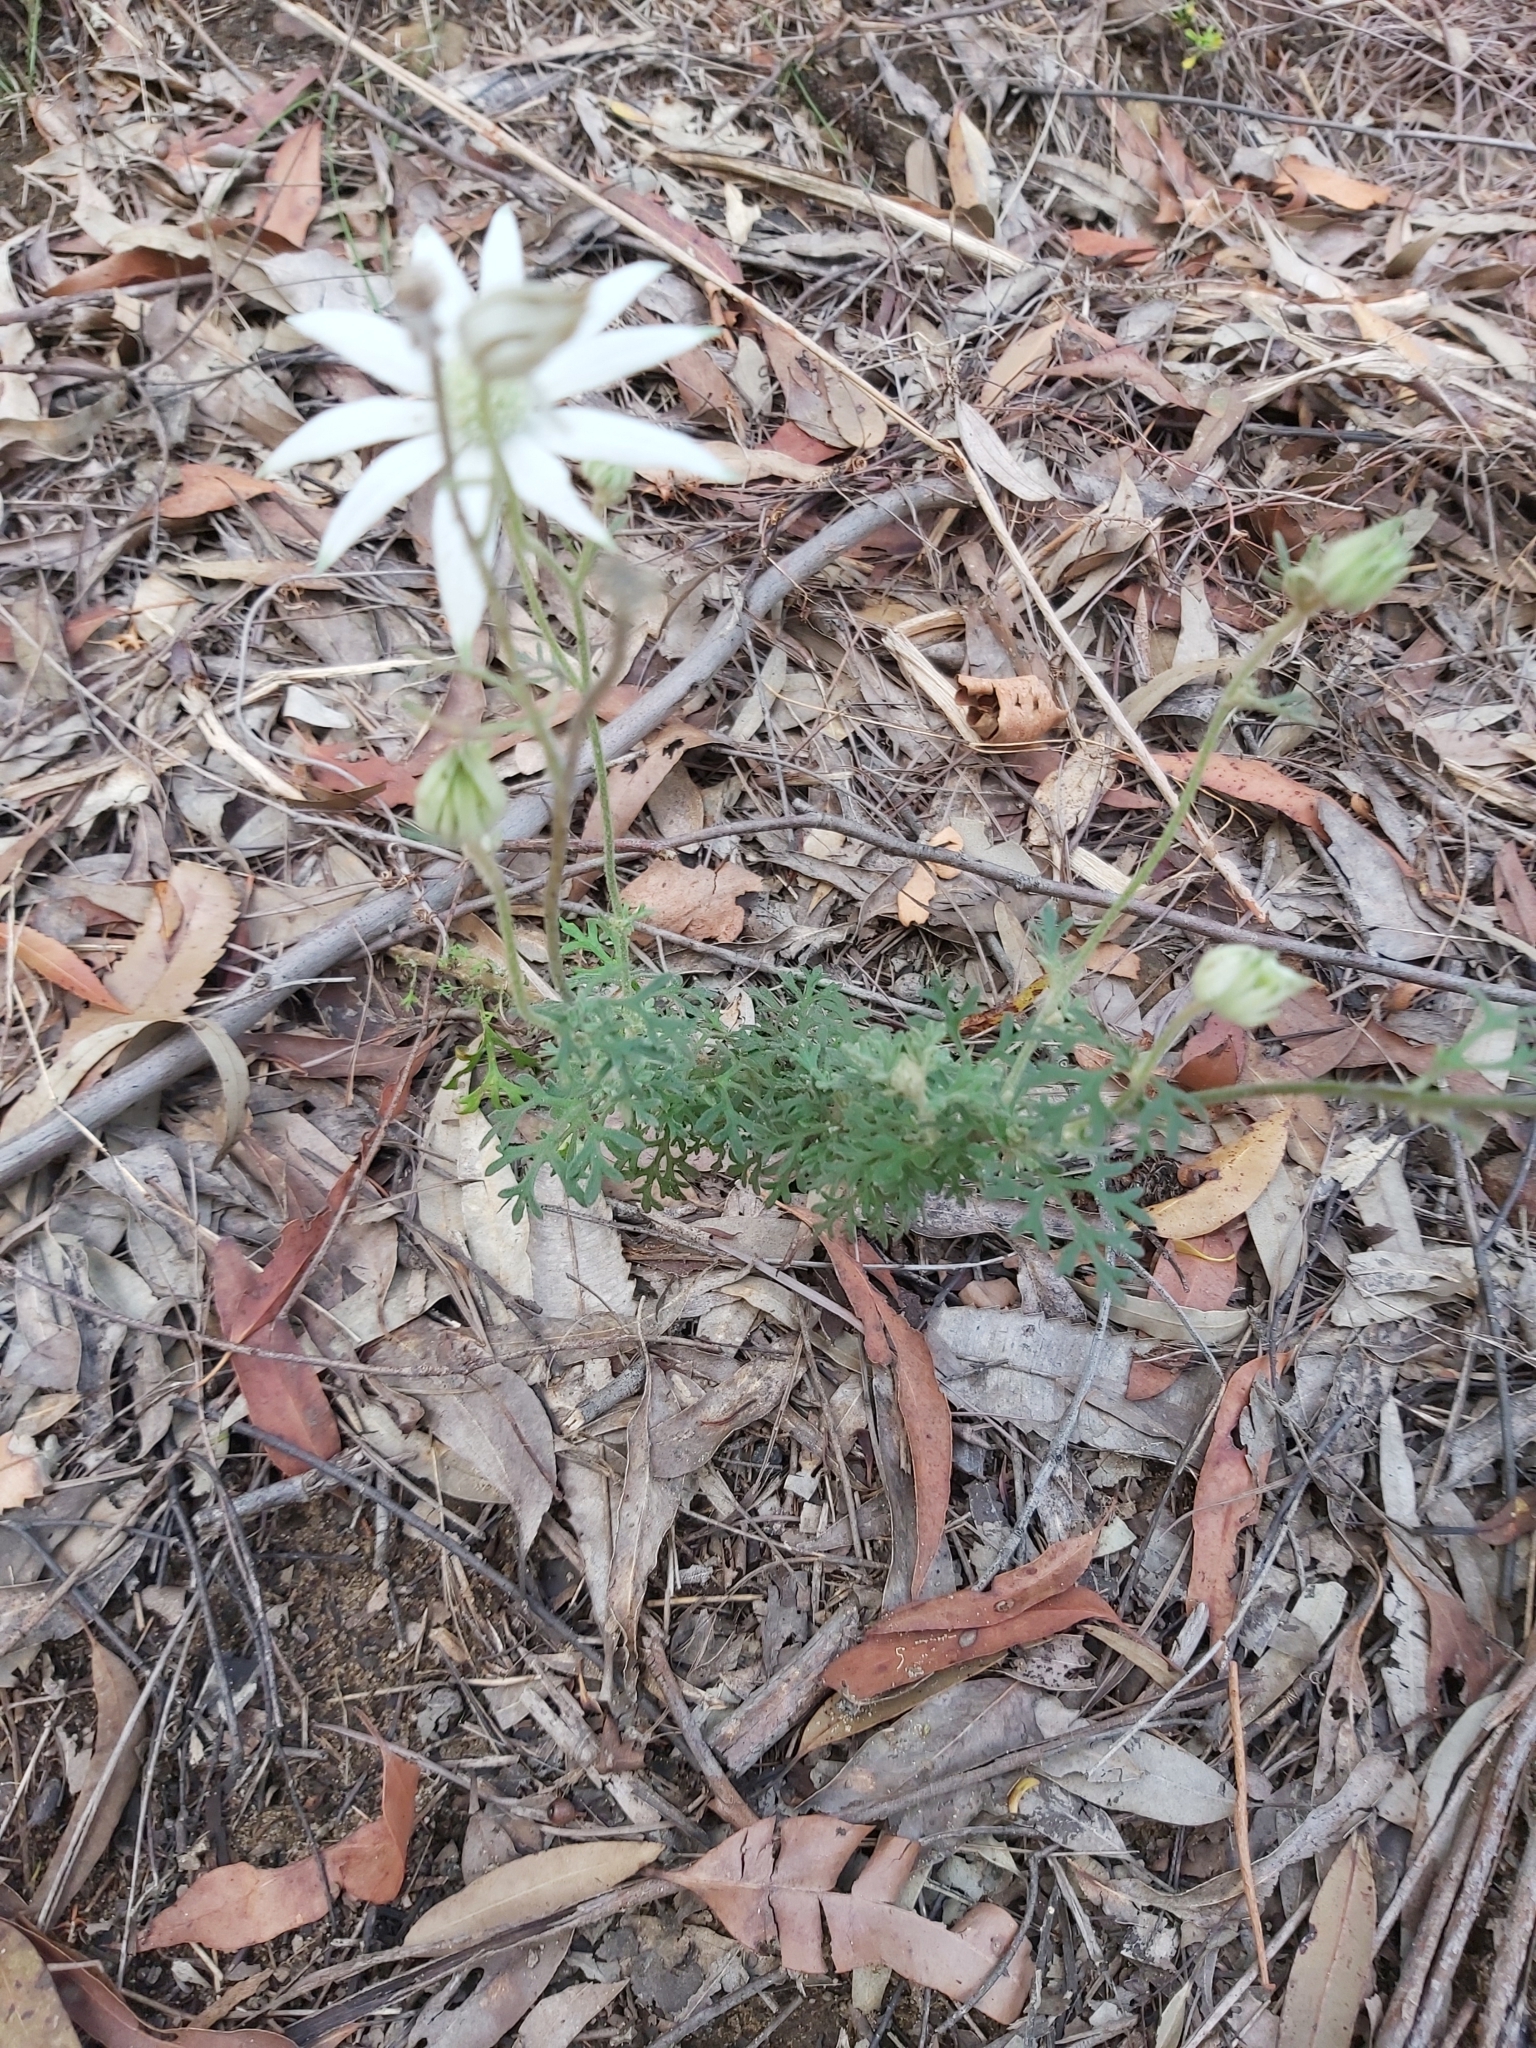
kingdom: Plantae
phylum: Tracheophyta
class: Magnoliopsida
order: Apiales
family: Apiaceae
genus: Actinotus
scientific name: Actinotus helianthi
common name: Flannel-flower
